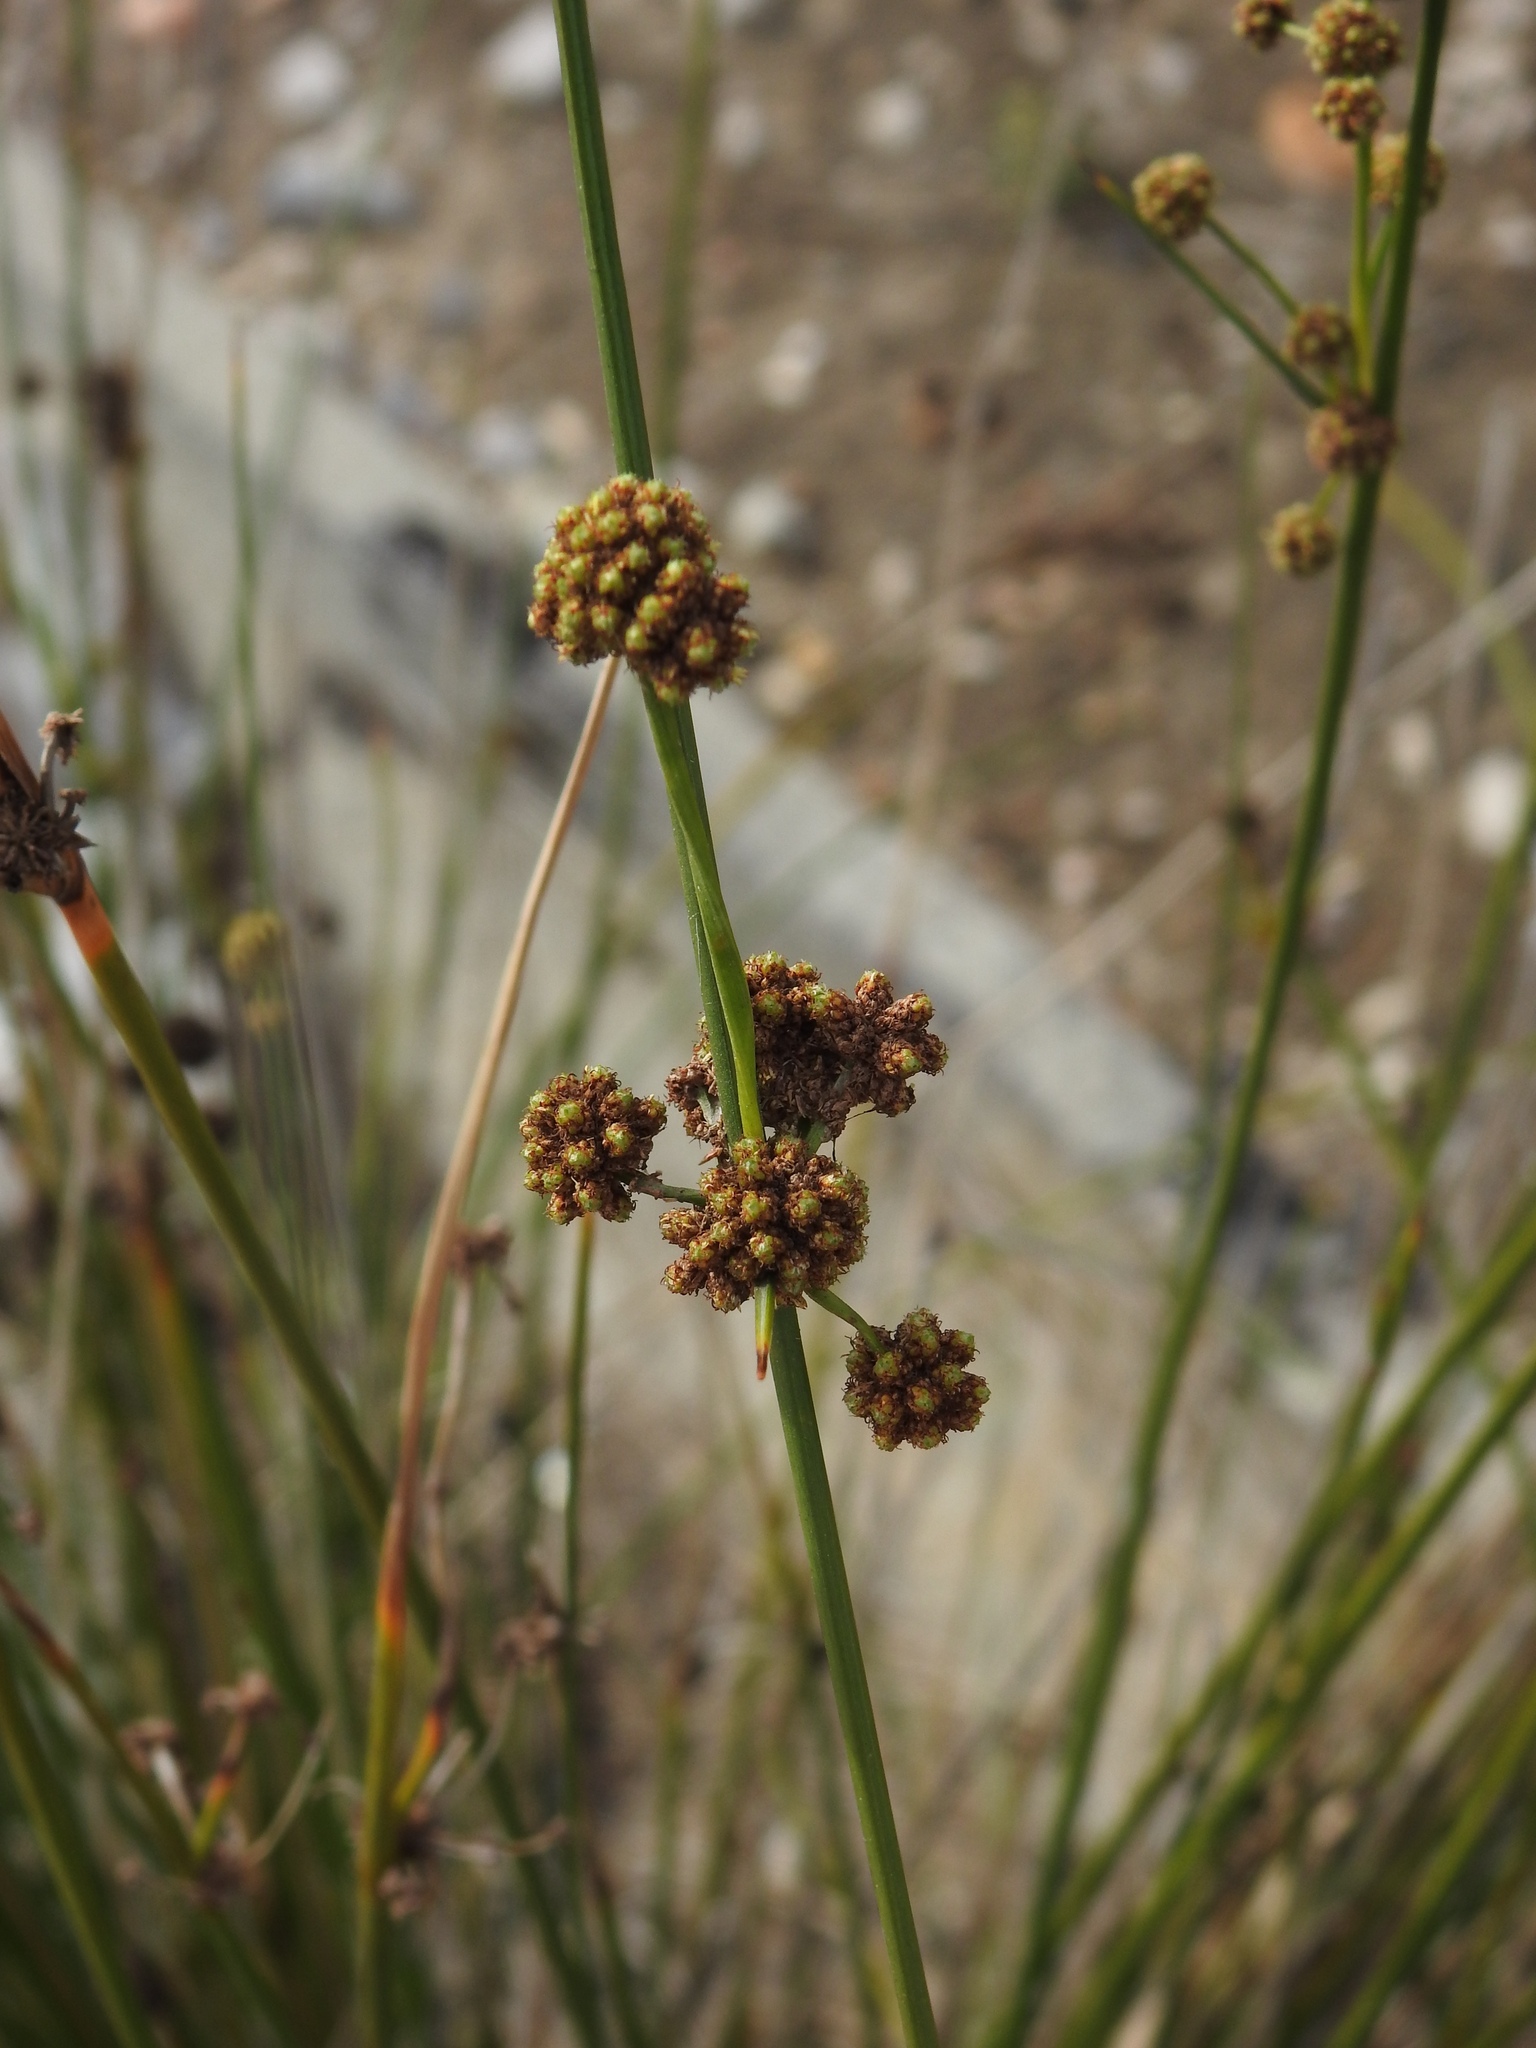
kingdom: Plantae
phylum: Tracheophyta
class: Liliopsida
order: Poales
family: Cyperaceae
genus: Scirpoides
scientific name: Scirpoides holoschoenus
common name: Round-headed club-rush
